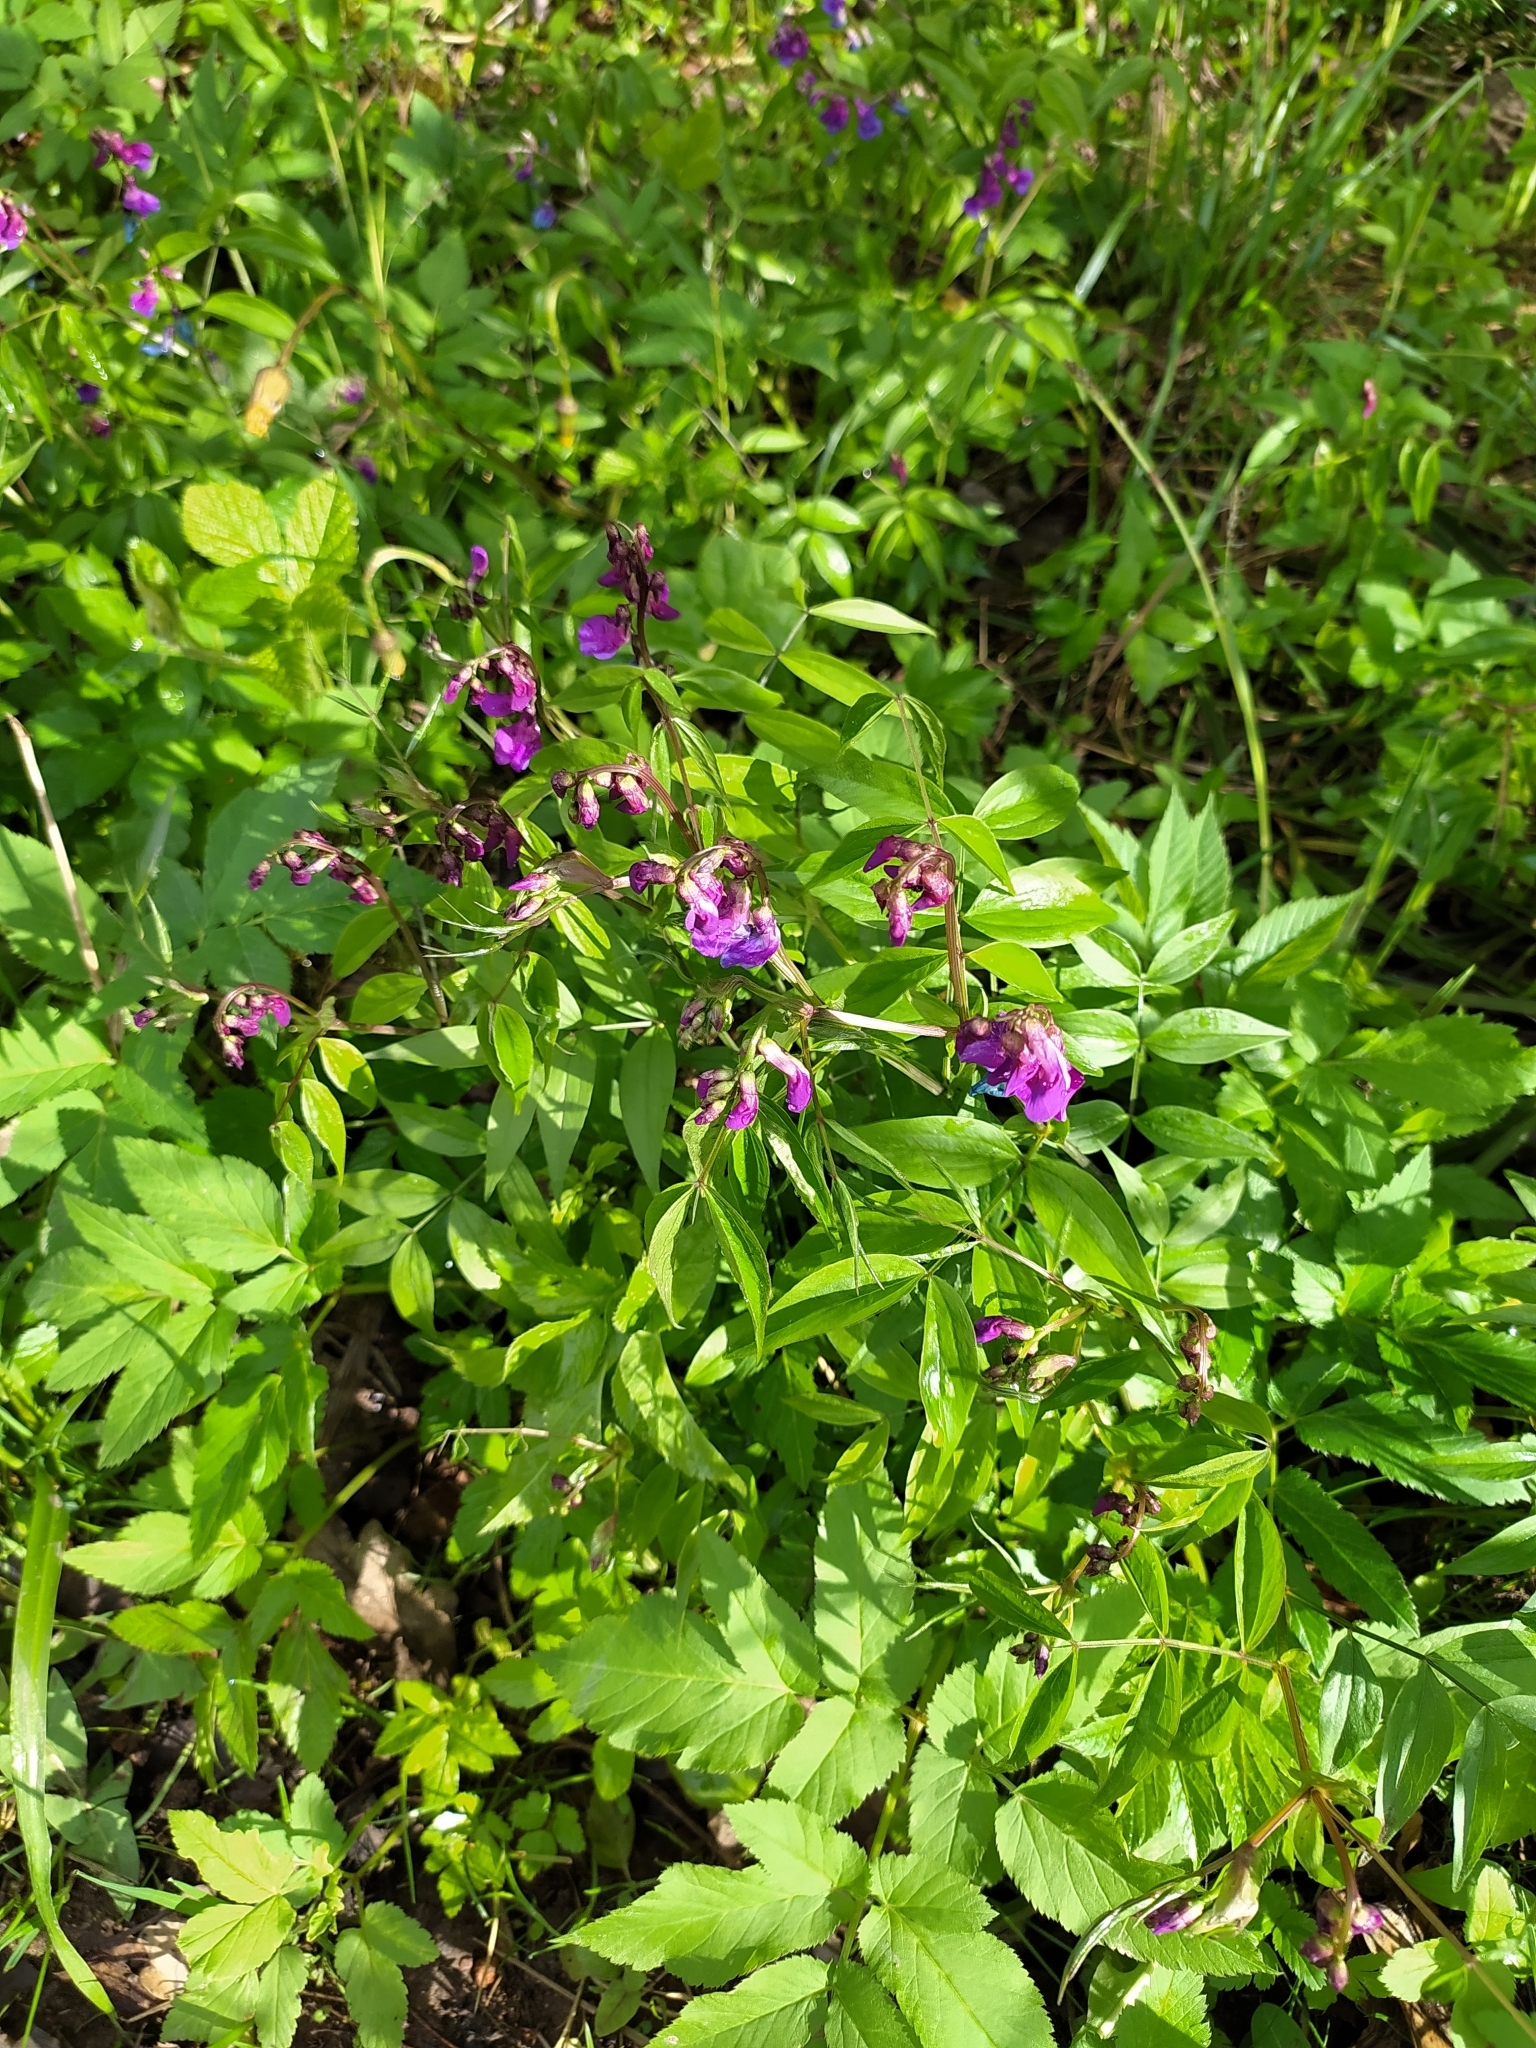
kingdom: Plantae
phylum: Tracheophyta
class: Magnoliopsida
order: Fabales
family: Fabaceae
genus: Lathyrus
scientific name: Lathyrus vernus
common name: Spring pea
